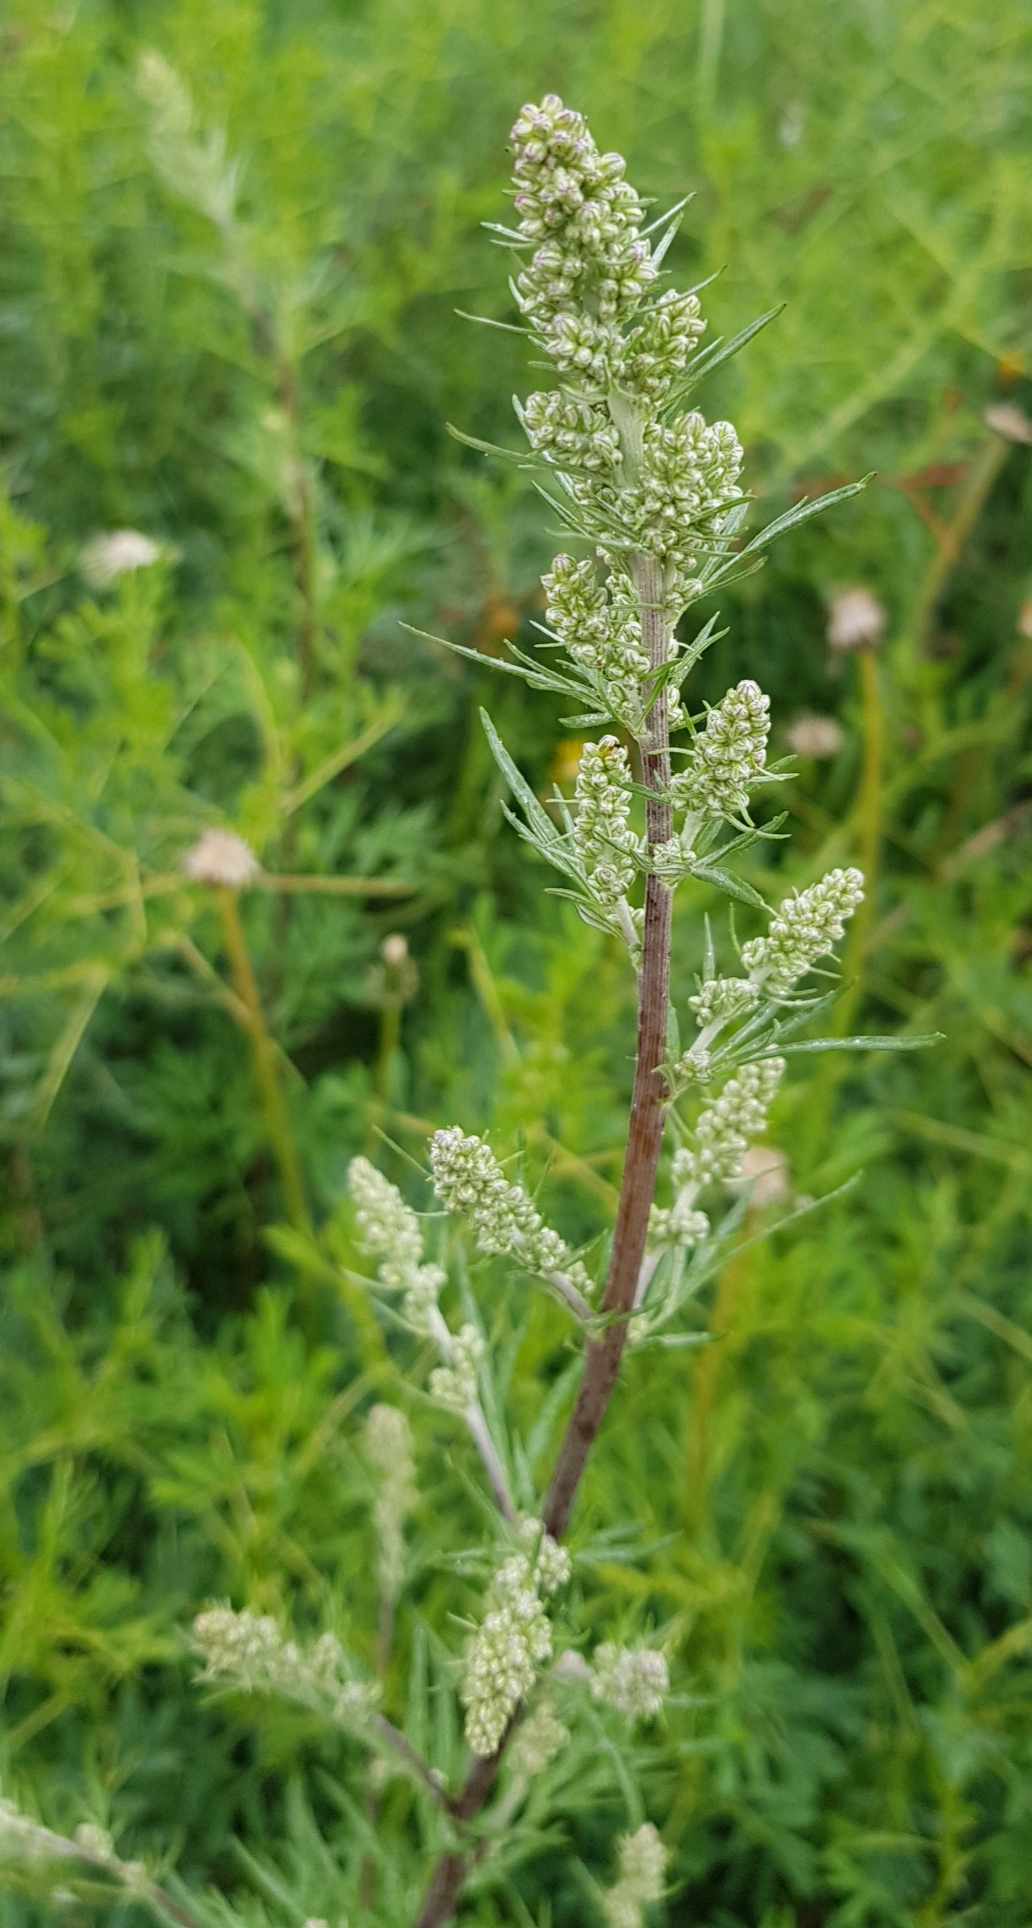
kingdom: Plantae
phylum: Tracheophyta
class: Magnoliopsida
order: Asterales
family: Asteraceae
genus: Artemisia
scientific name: Artemisia vulgaris
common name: Mugwort
